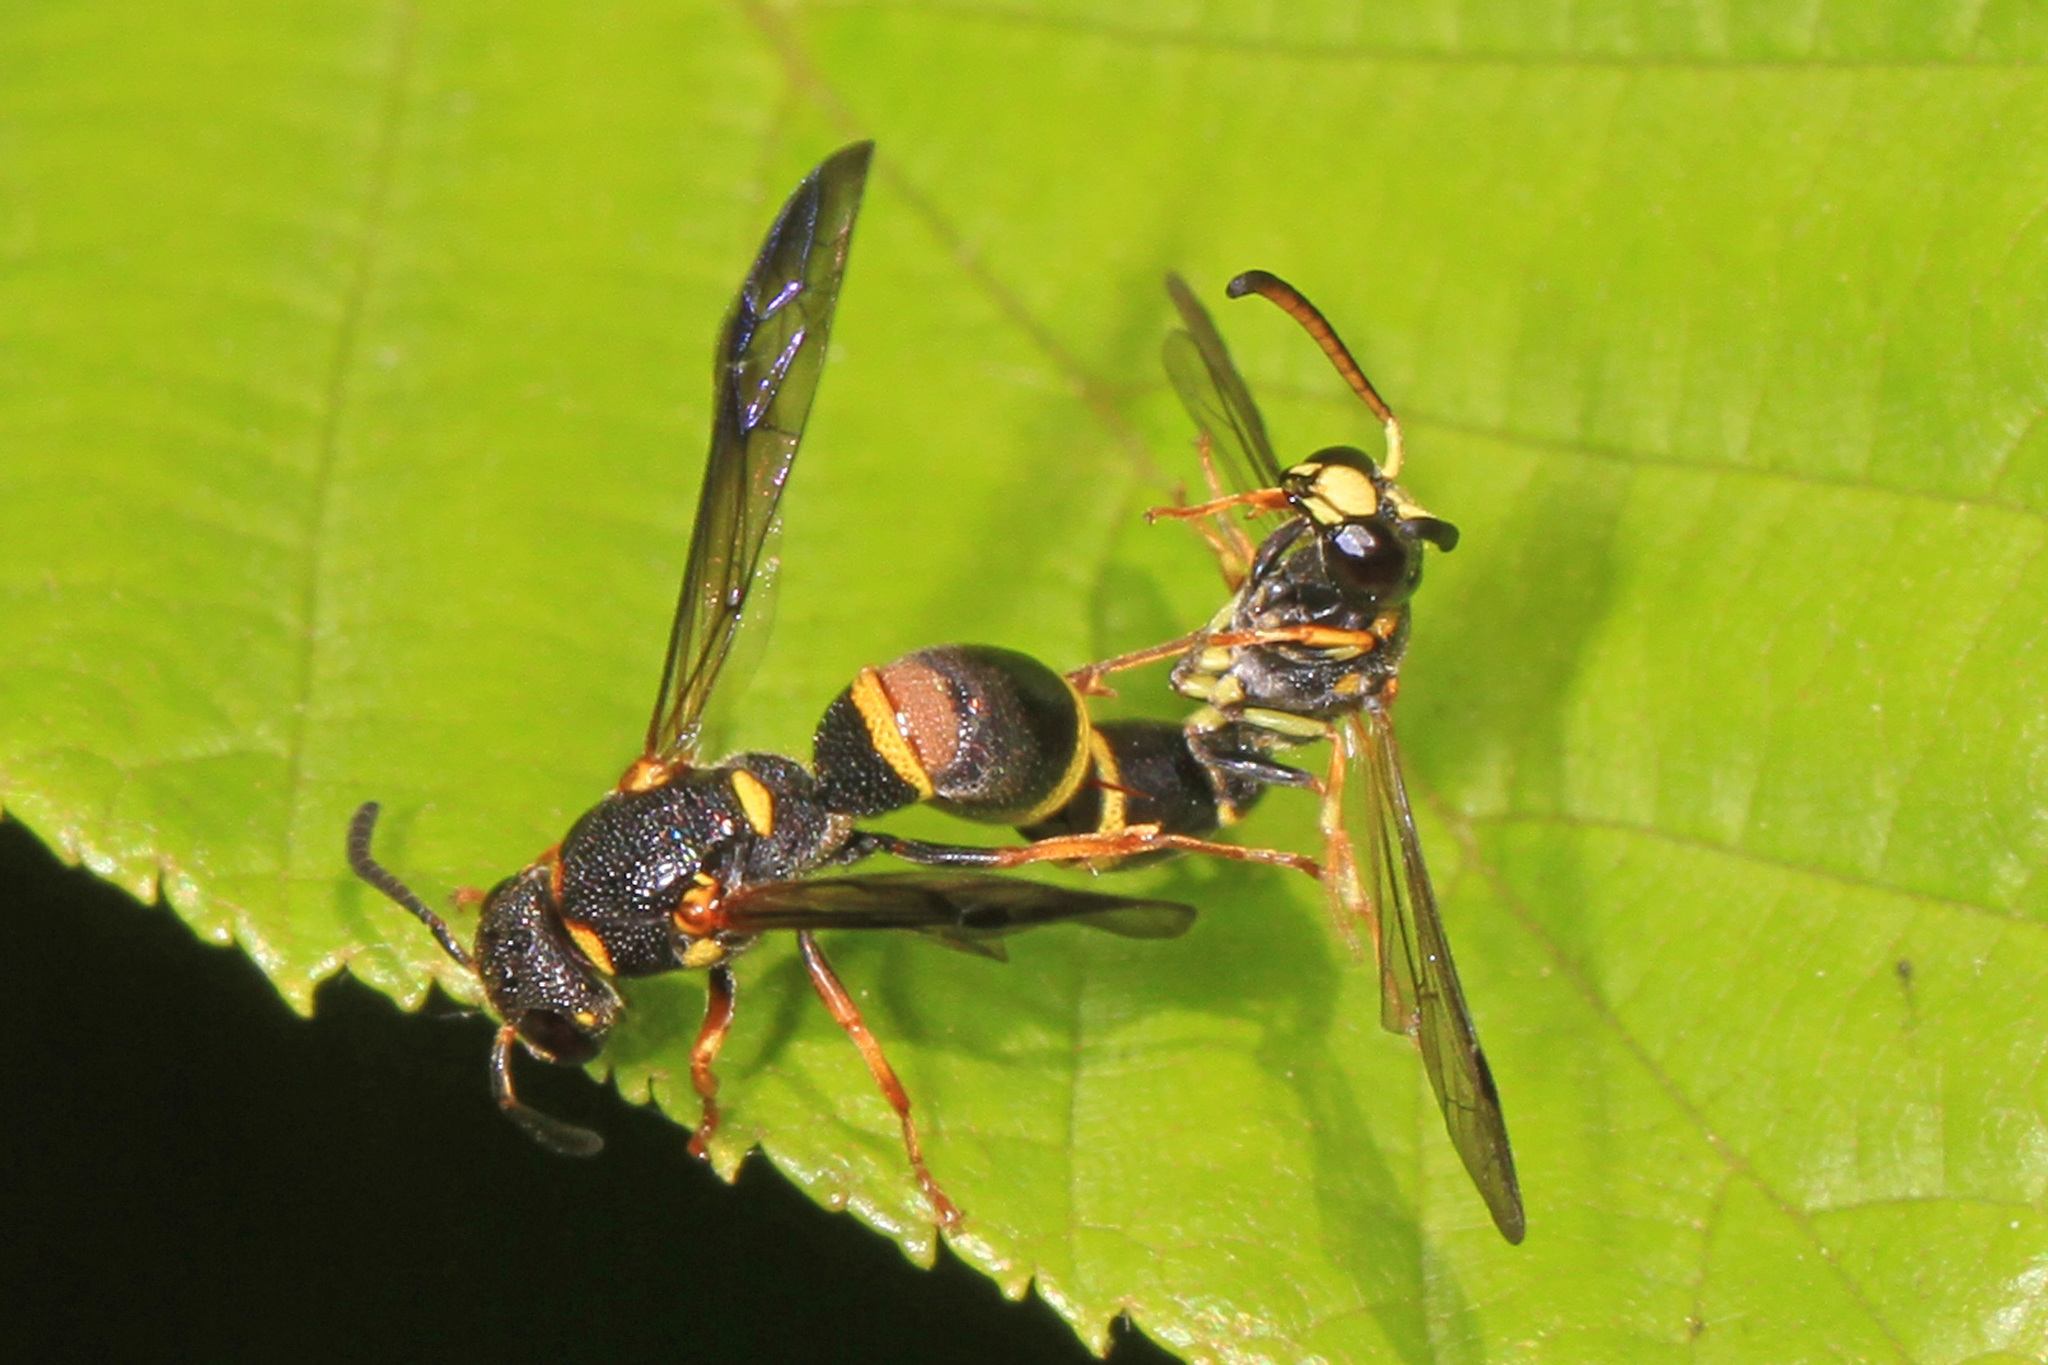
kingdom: Animalia
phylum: Arthropoda
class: Insecta
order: Hymenoptera
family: Eumenidae
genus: Parancistrocerus
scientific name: Parancistrocerus perennis
